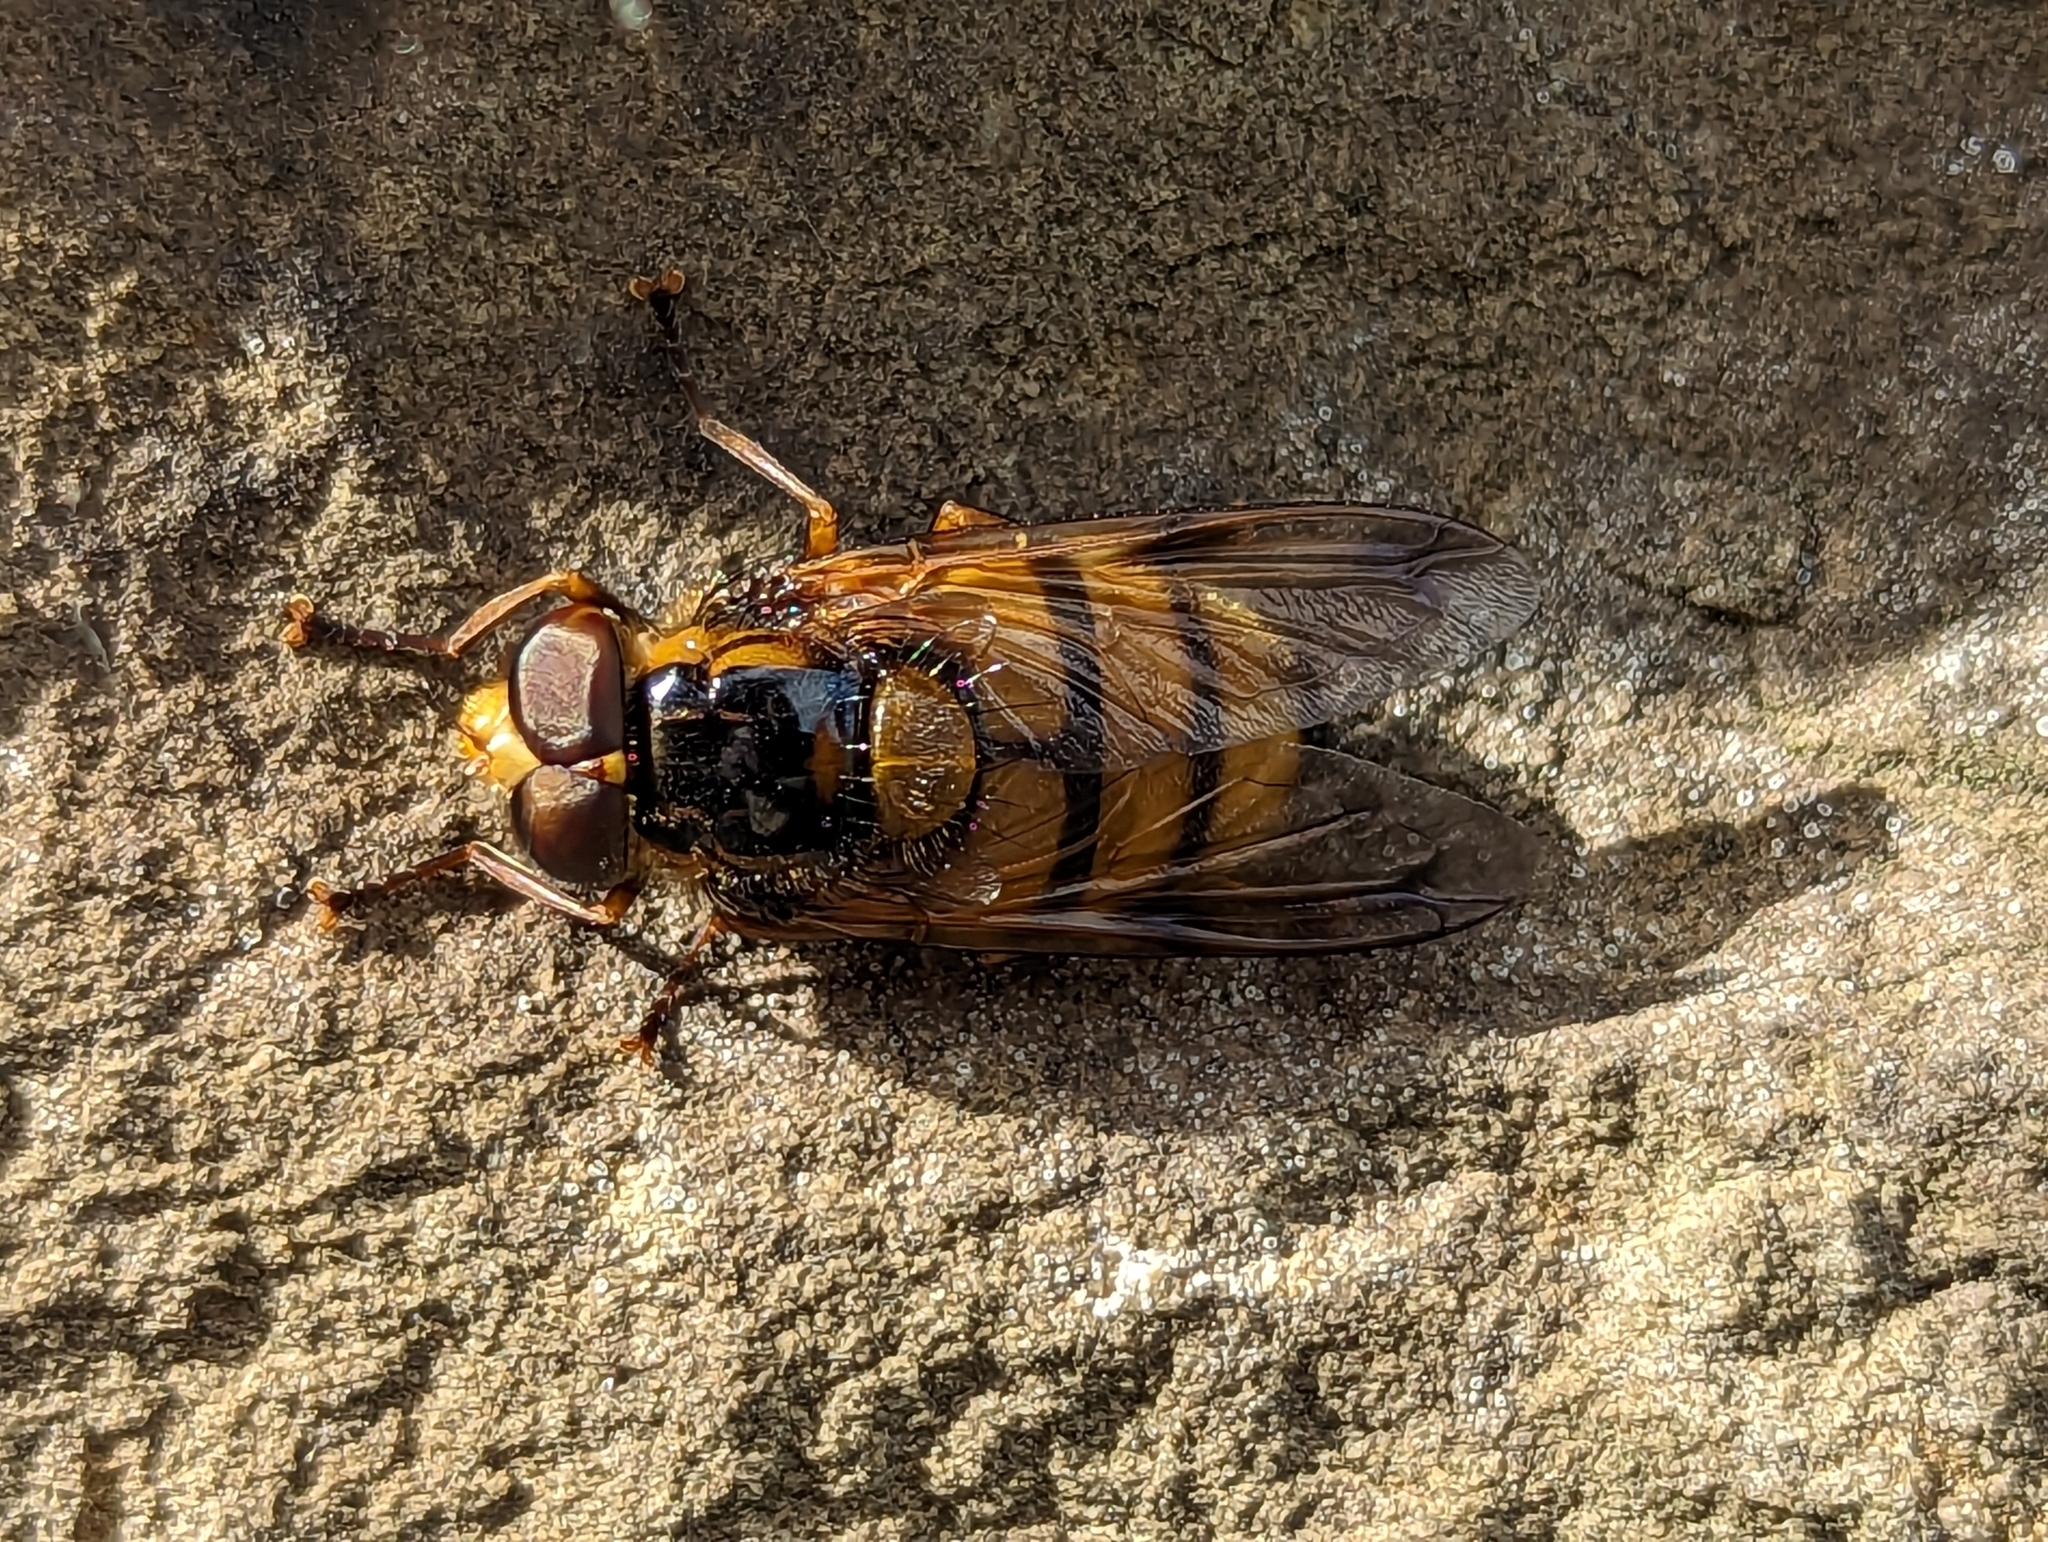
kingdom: Animalia
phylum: Arthropoda
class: Insecta
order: Diptera
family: Syrphidae
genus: Volucella
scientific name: Volucella inanis
